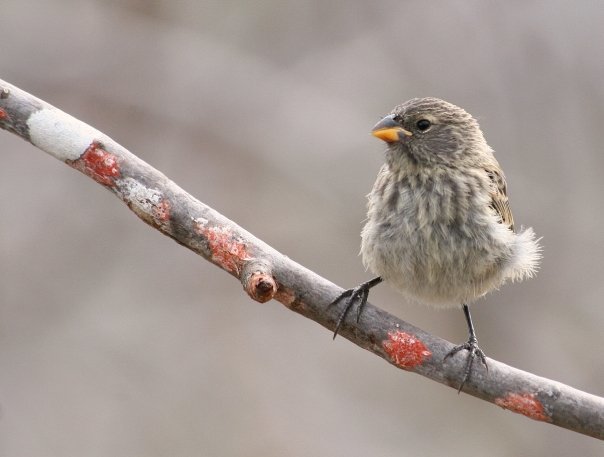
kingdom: Animalia
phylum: Chordata
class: Aves
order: Passeriformes
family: Thraupidae
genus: Geospiza
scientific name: Geospiza fuliginosa
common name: Small ground finch
